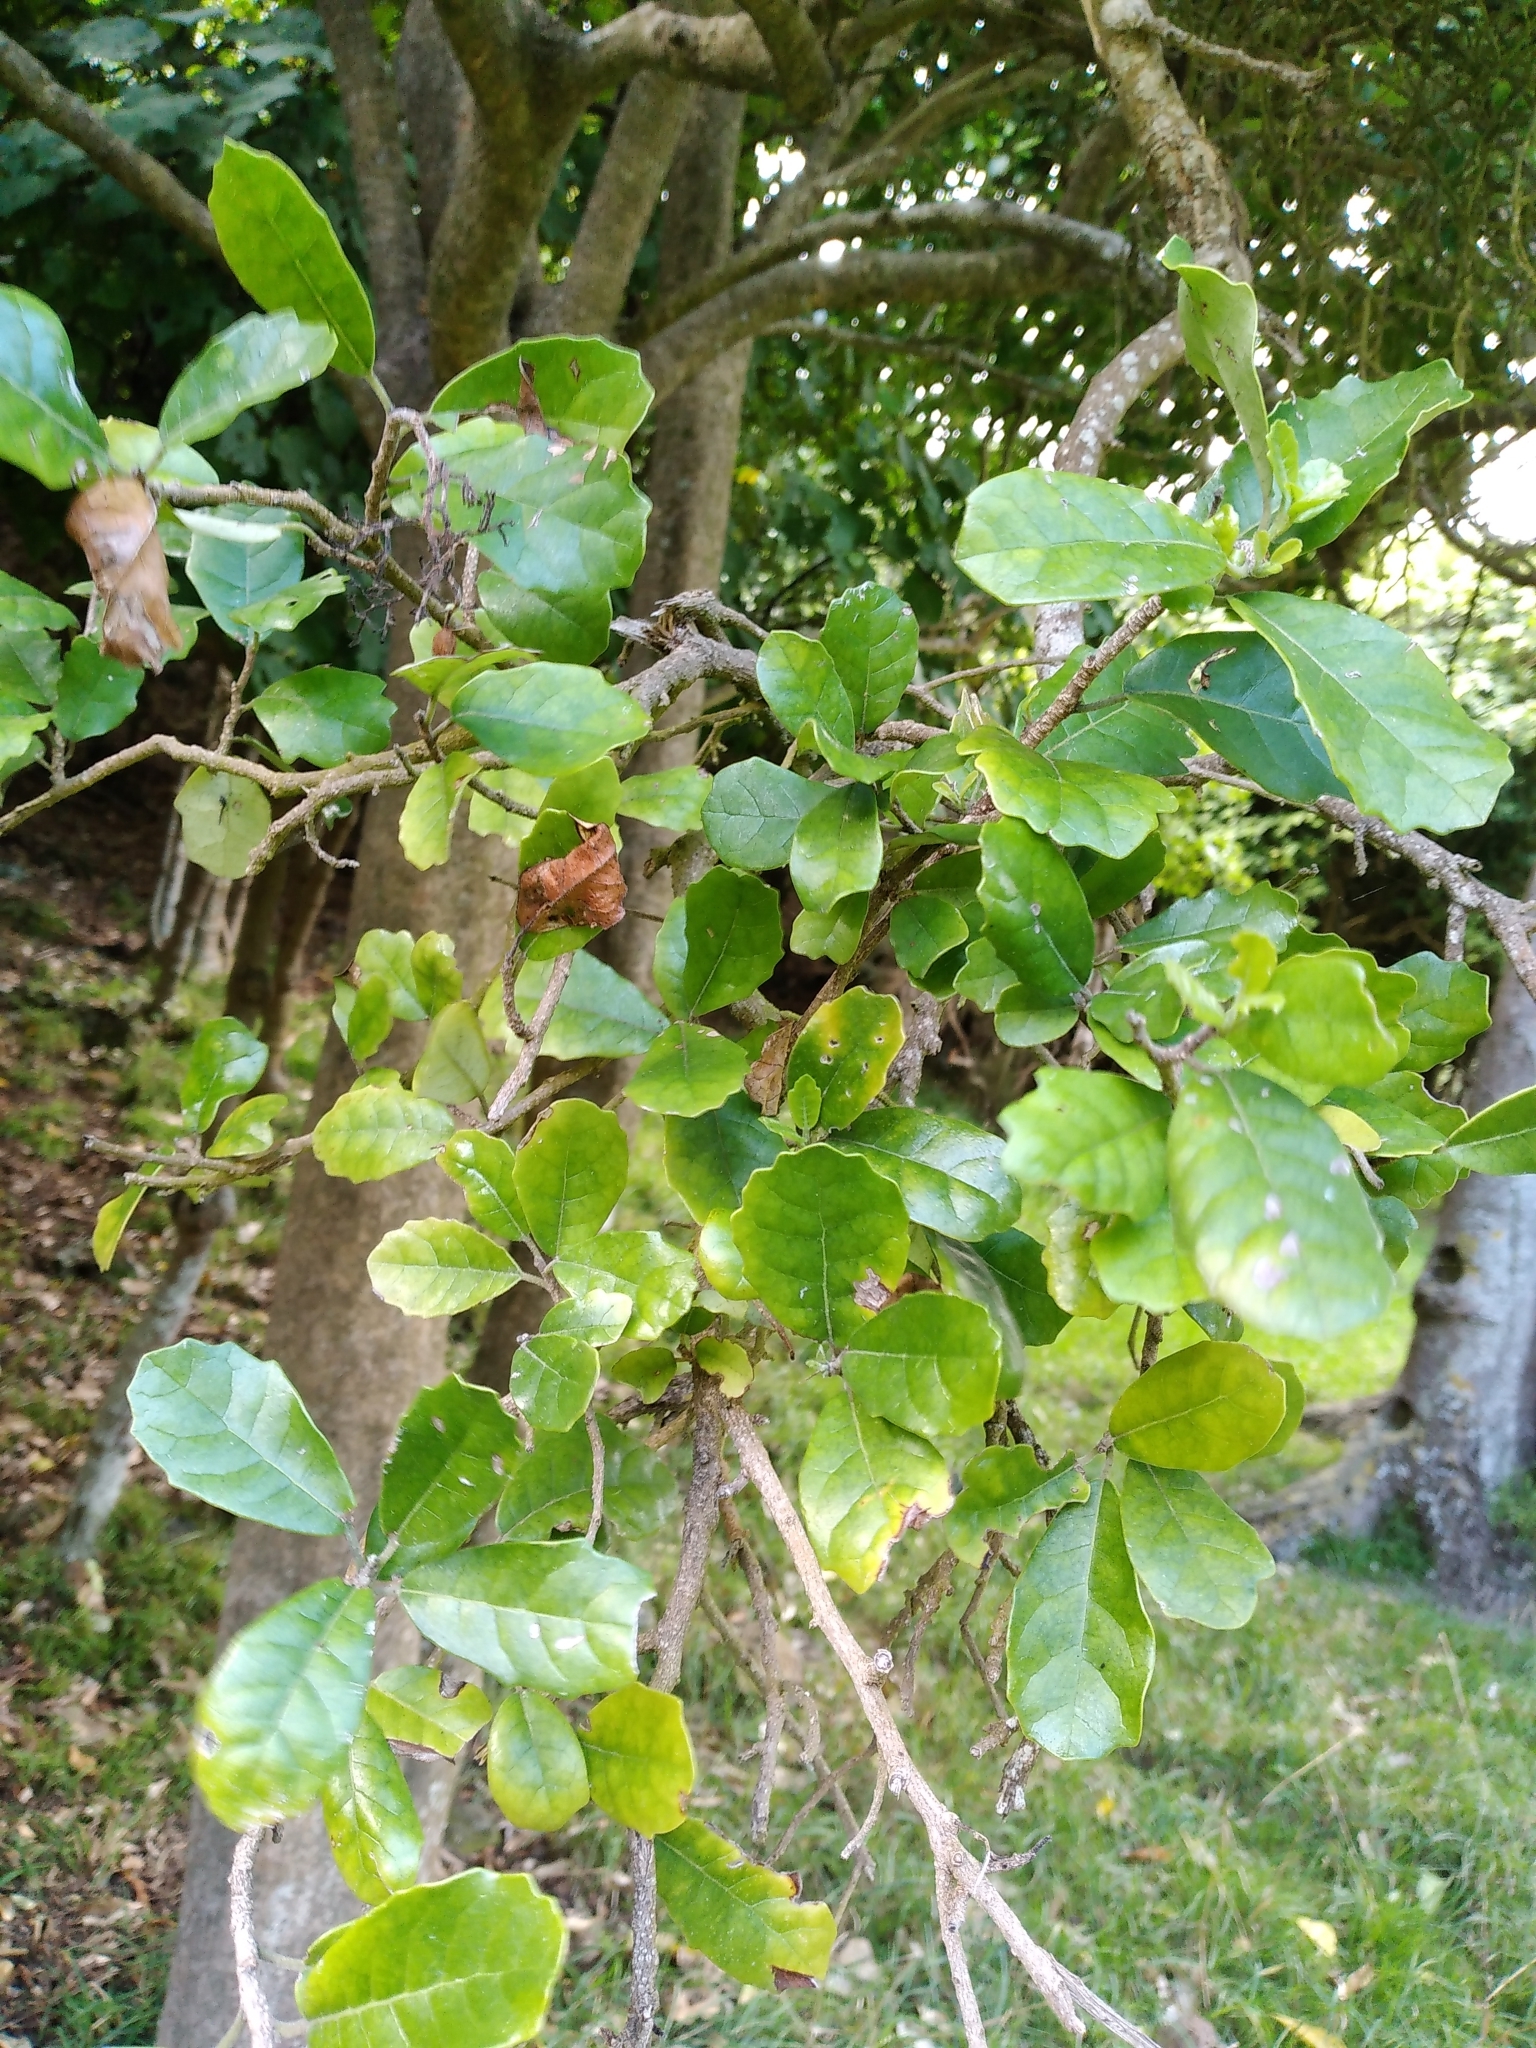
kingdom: Plantae
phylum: Tracheophyta
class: Magnoliopsida
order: Apiales
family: Pennantiaceae
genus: Pennantia
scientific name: Pennantia corymbosa
